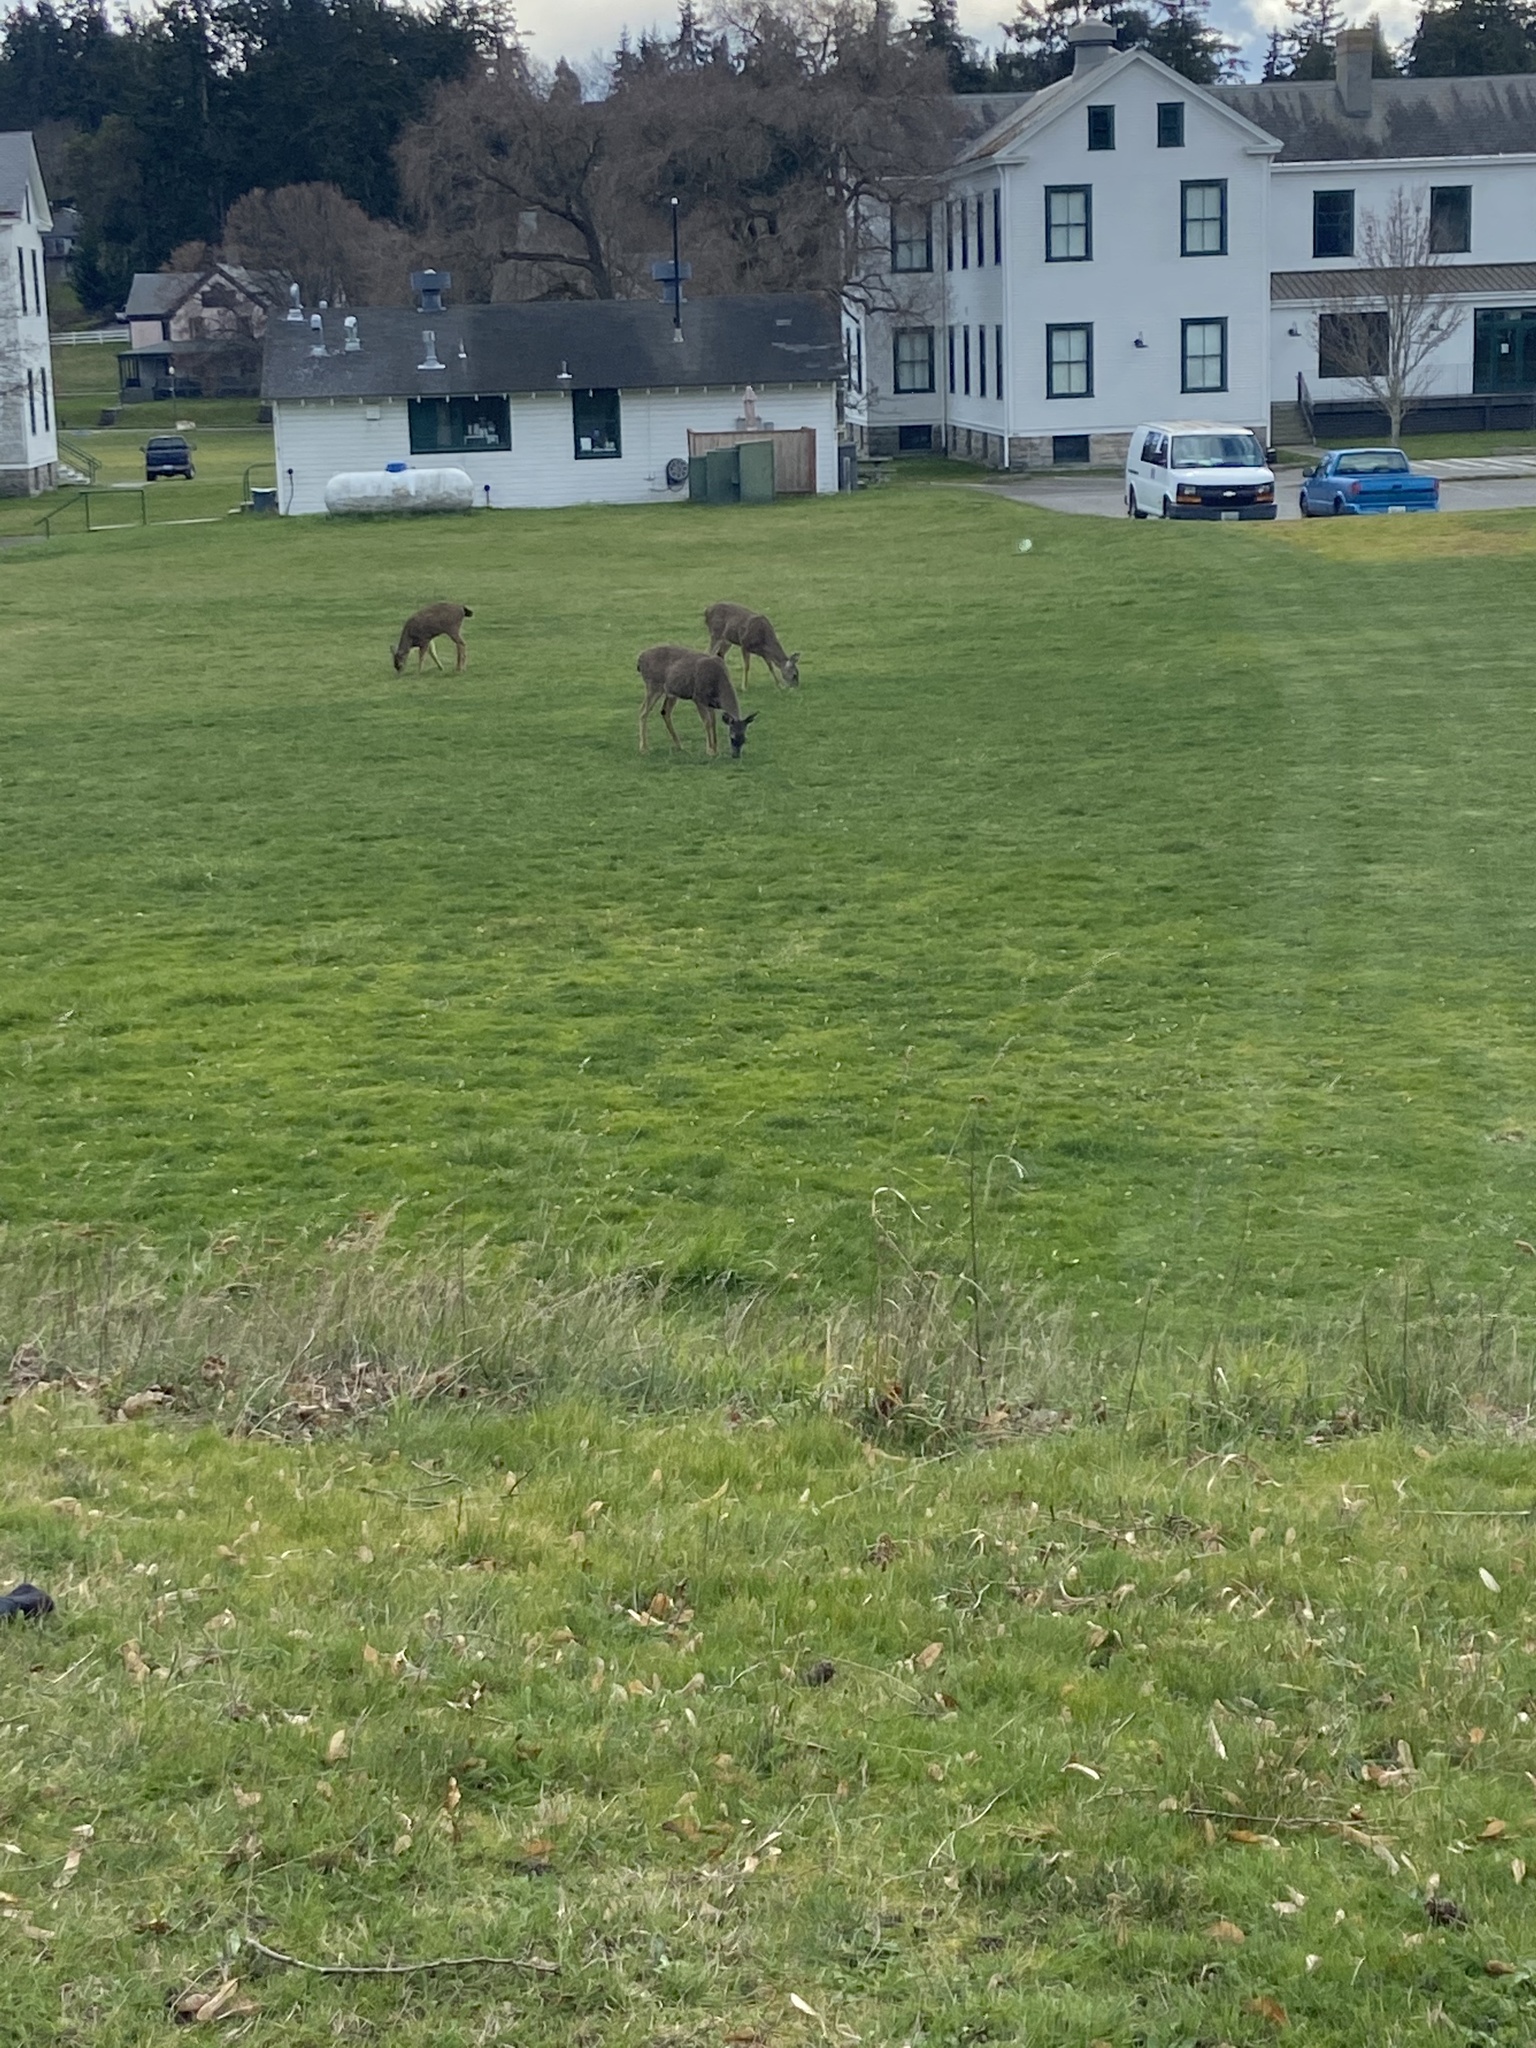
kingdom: Animalia
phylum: Chordata
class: Mammalia
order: Artiodactyla
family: Cervidae
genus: Odocoileus
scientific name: Odocoileus hemionus
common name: Mule deer
